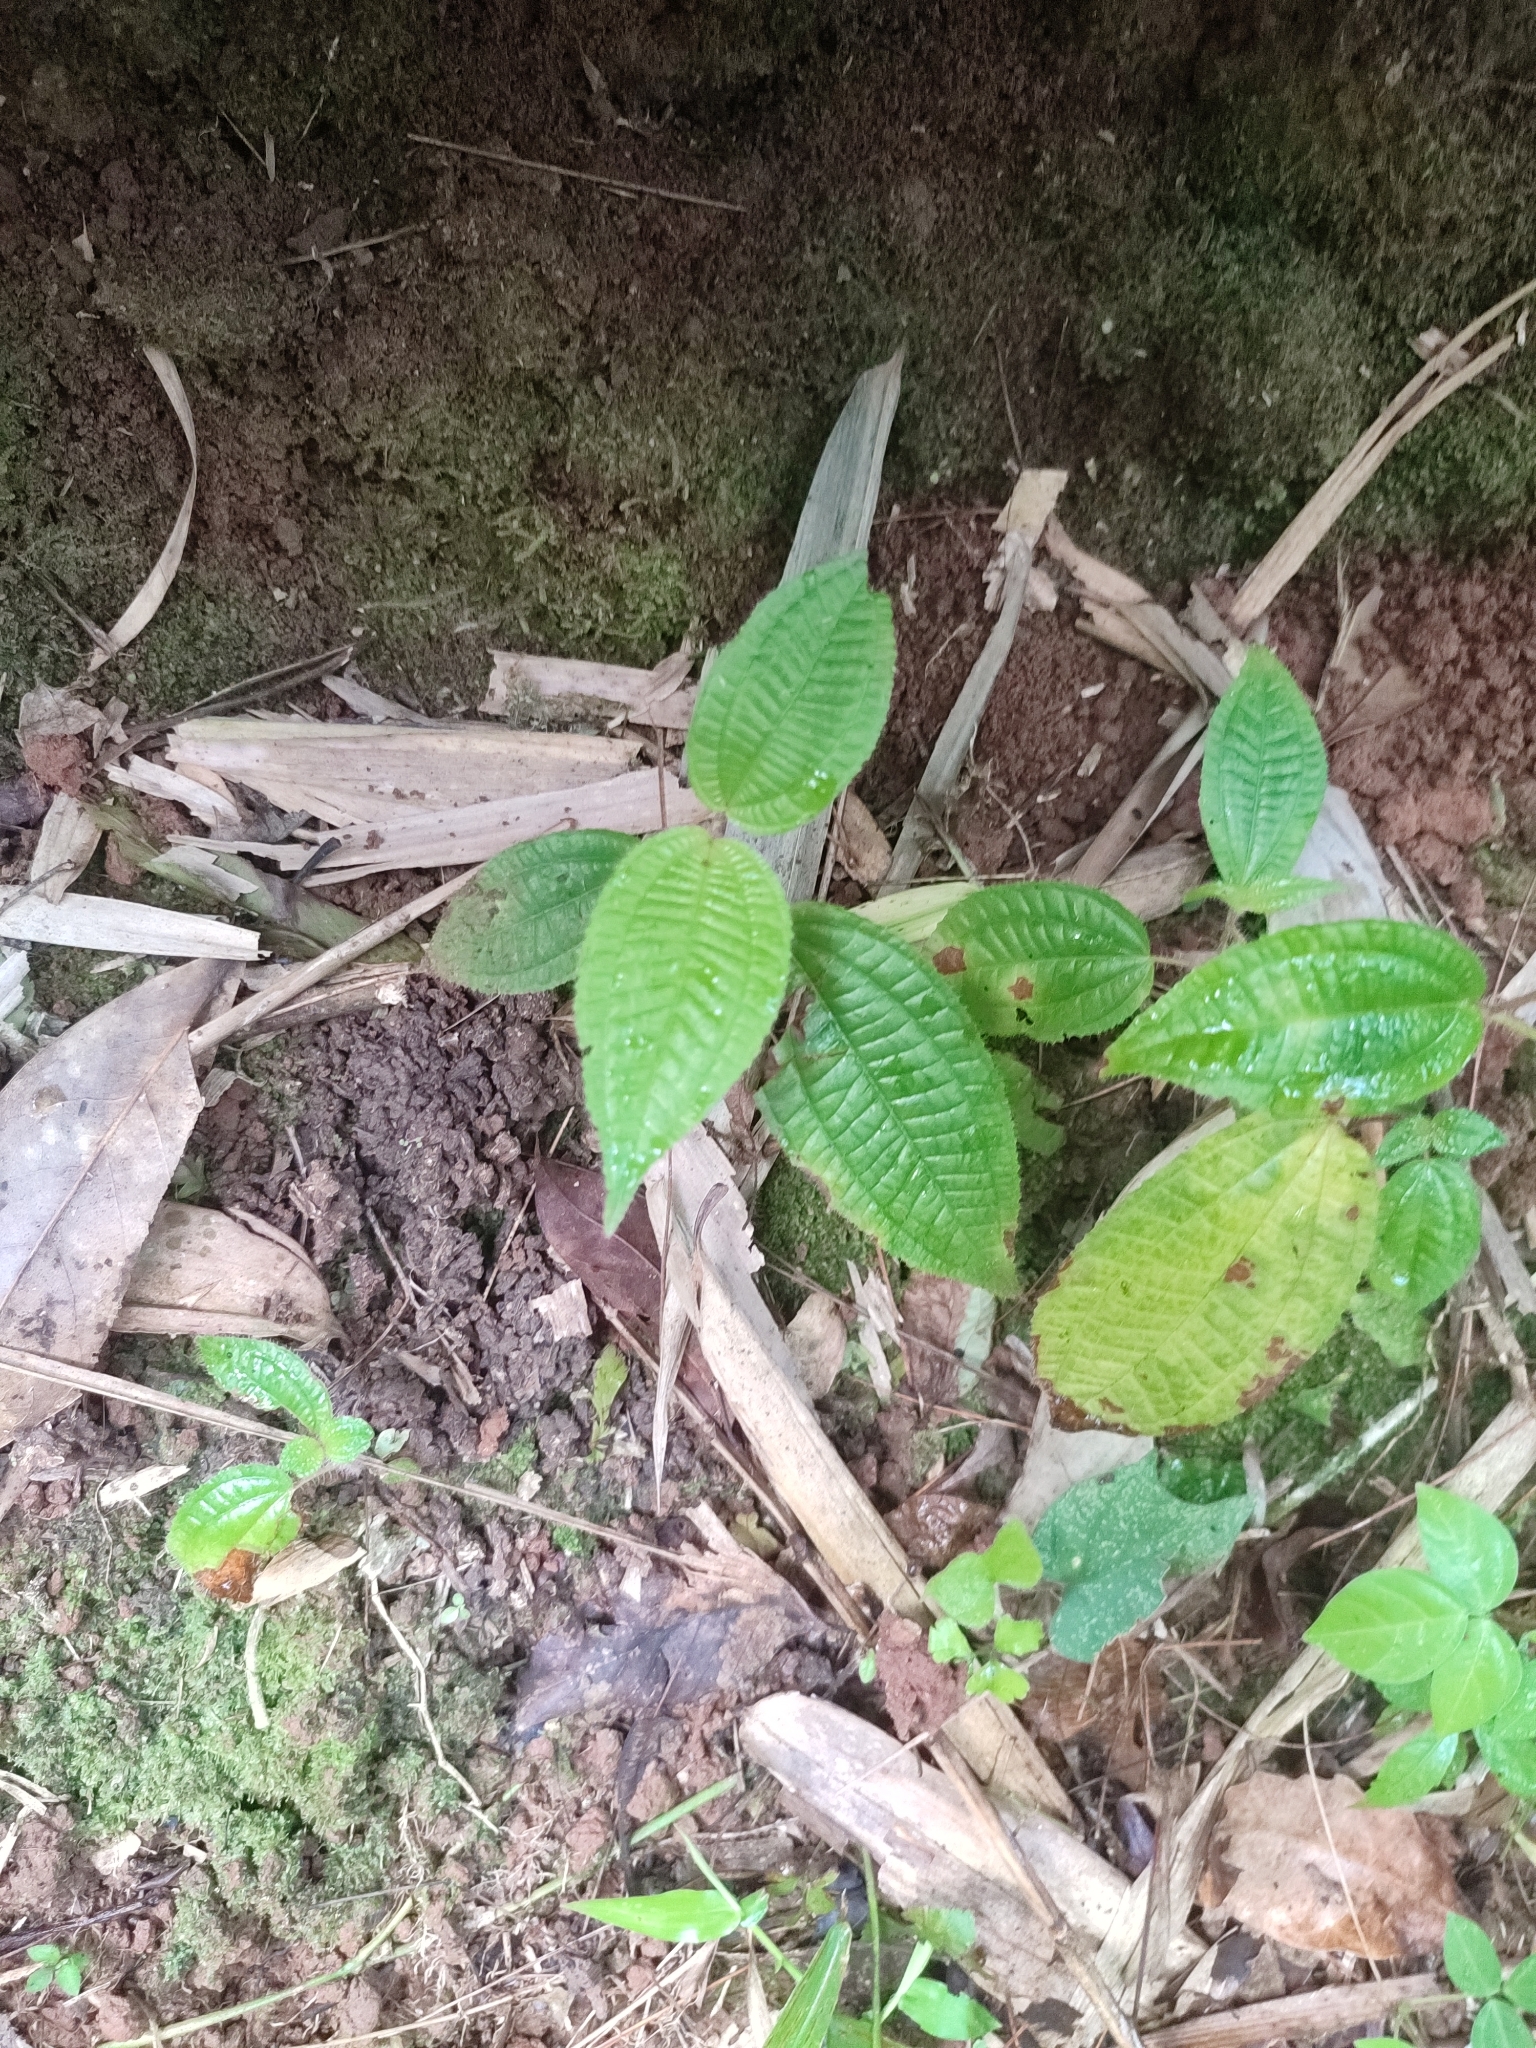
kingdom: Plantae
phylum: Tracheophyta
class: Magnoliopsida
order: Myrtales
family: Melastomataceae
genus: Miconia
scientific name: Miconia crenata
